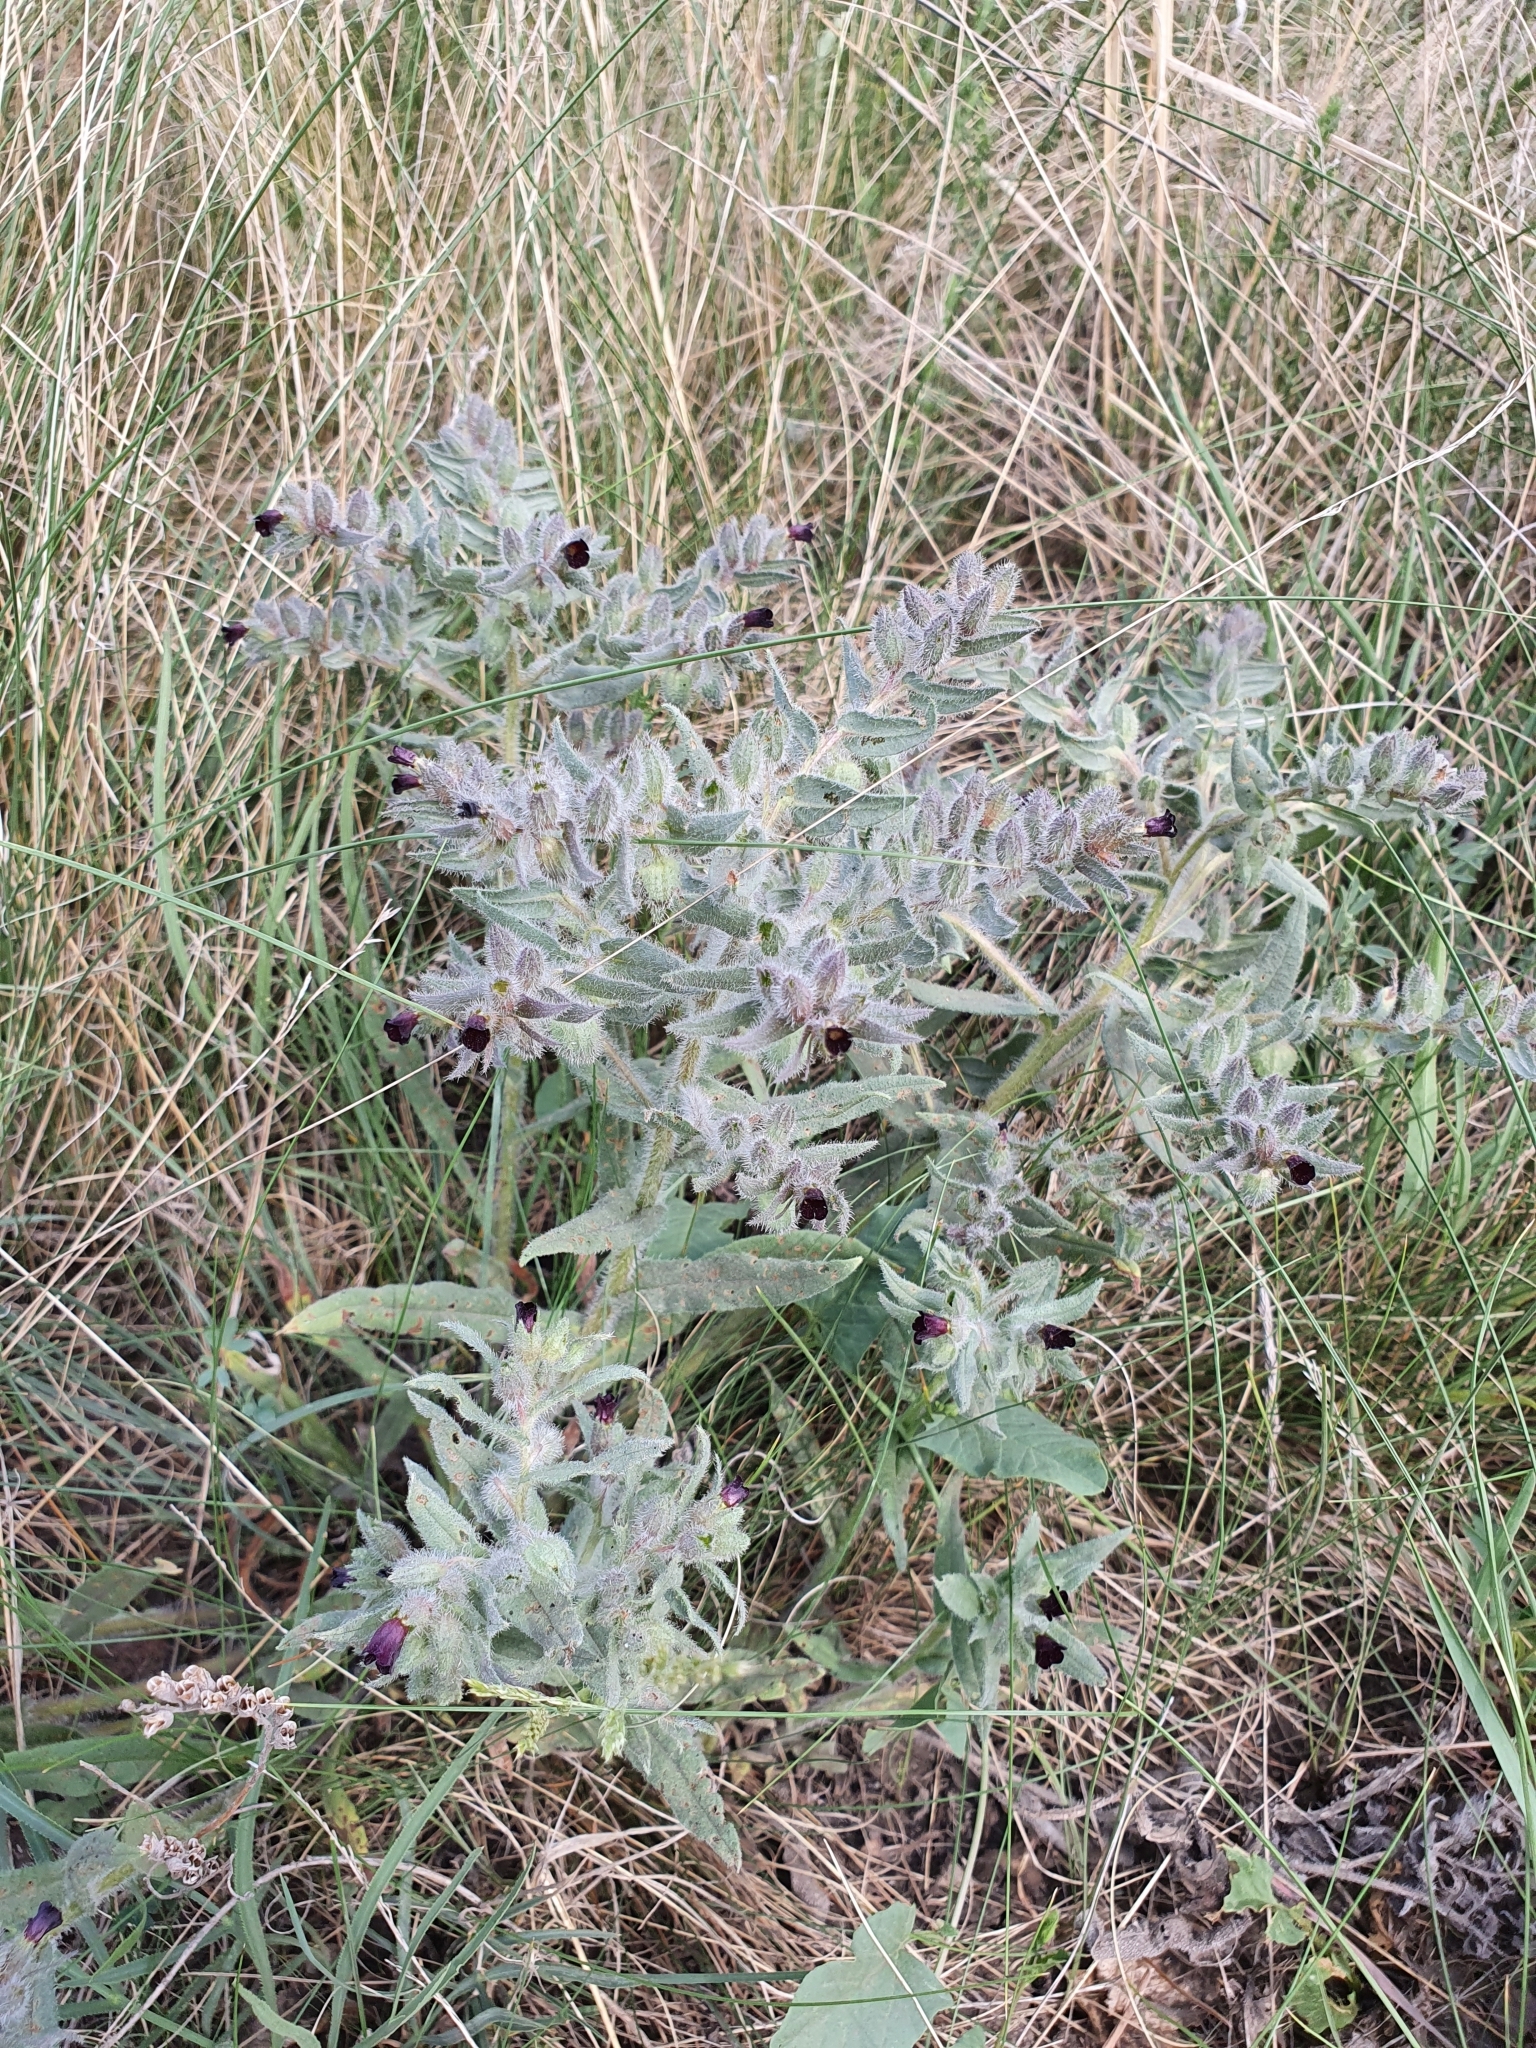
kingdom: Plantae
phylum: Tracheophyta
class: Magnoliopsida
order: Boraginales
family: Boraginaceae
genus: Nonea
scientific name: Nonea pulla
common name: Brown nonea
